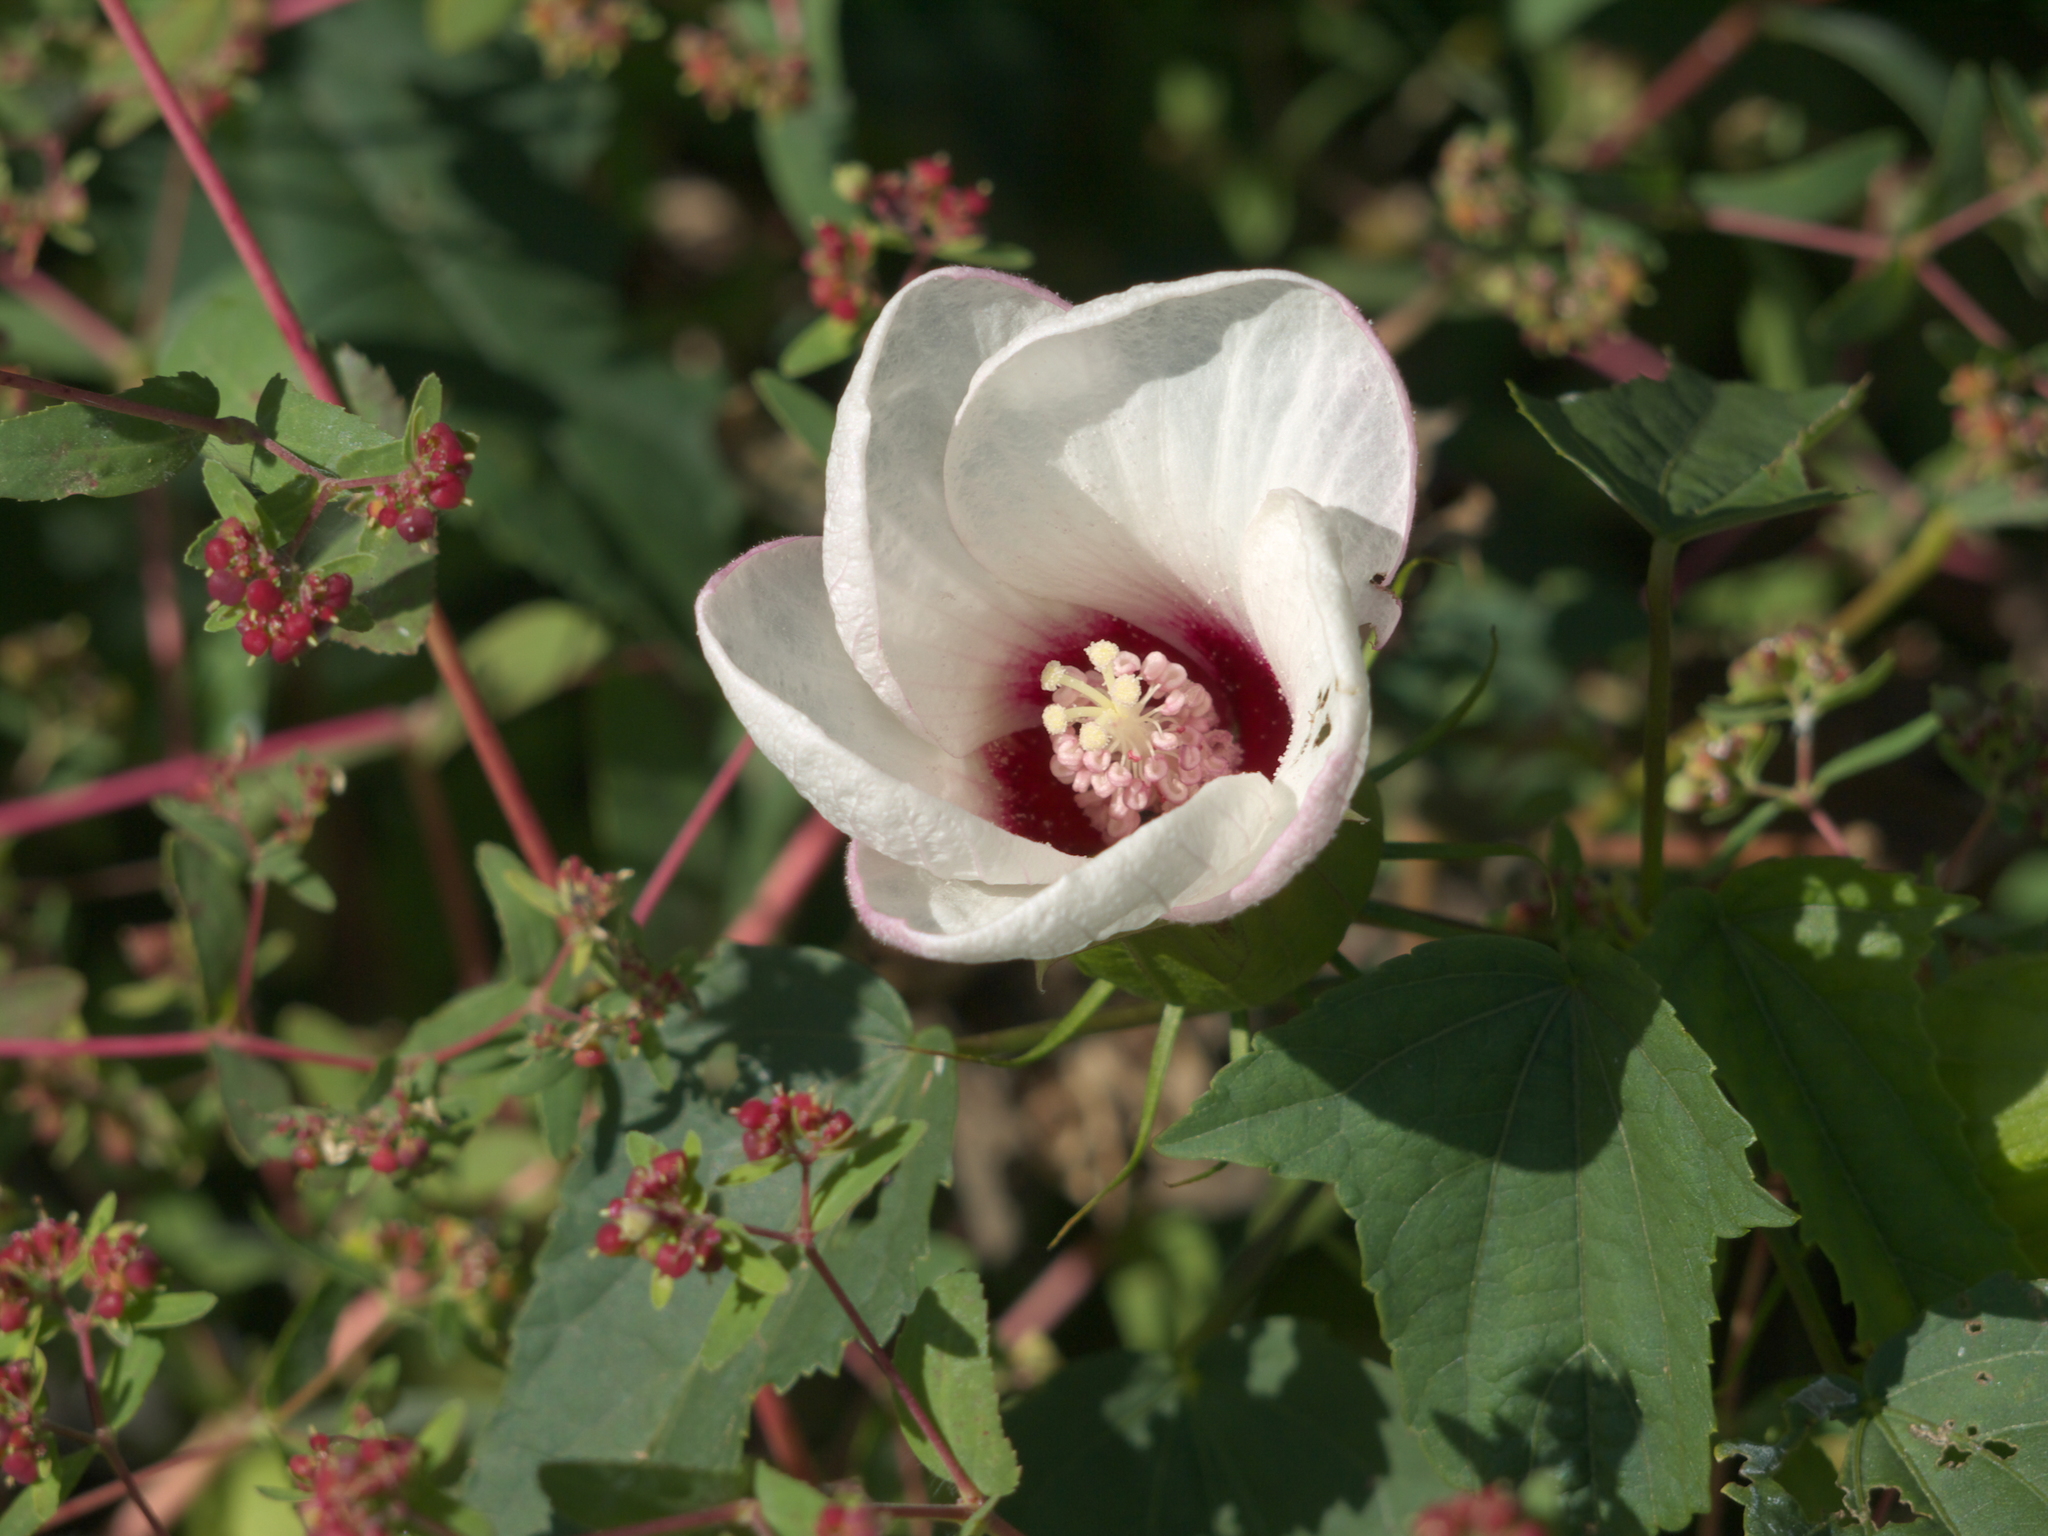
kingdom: Plantae
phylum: Tracheophyta
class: Magnoliopsida
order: Malvales
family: Malvaceae
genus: Hibiscus
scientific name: Hibiscus laevis
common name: Scarlet rose-mallow
